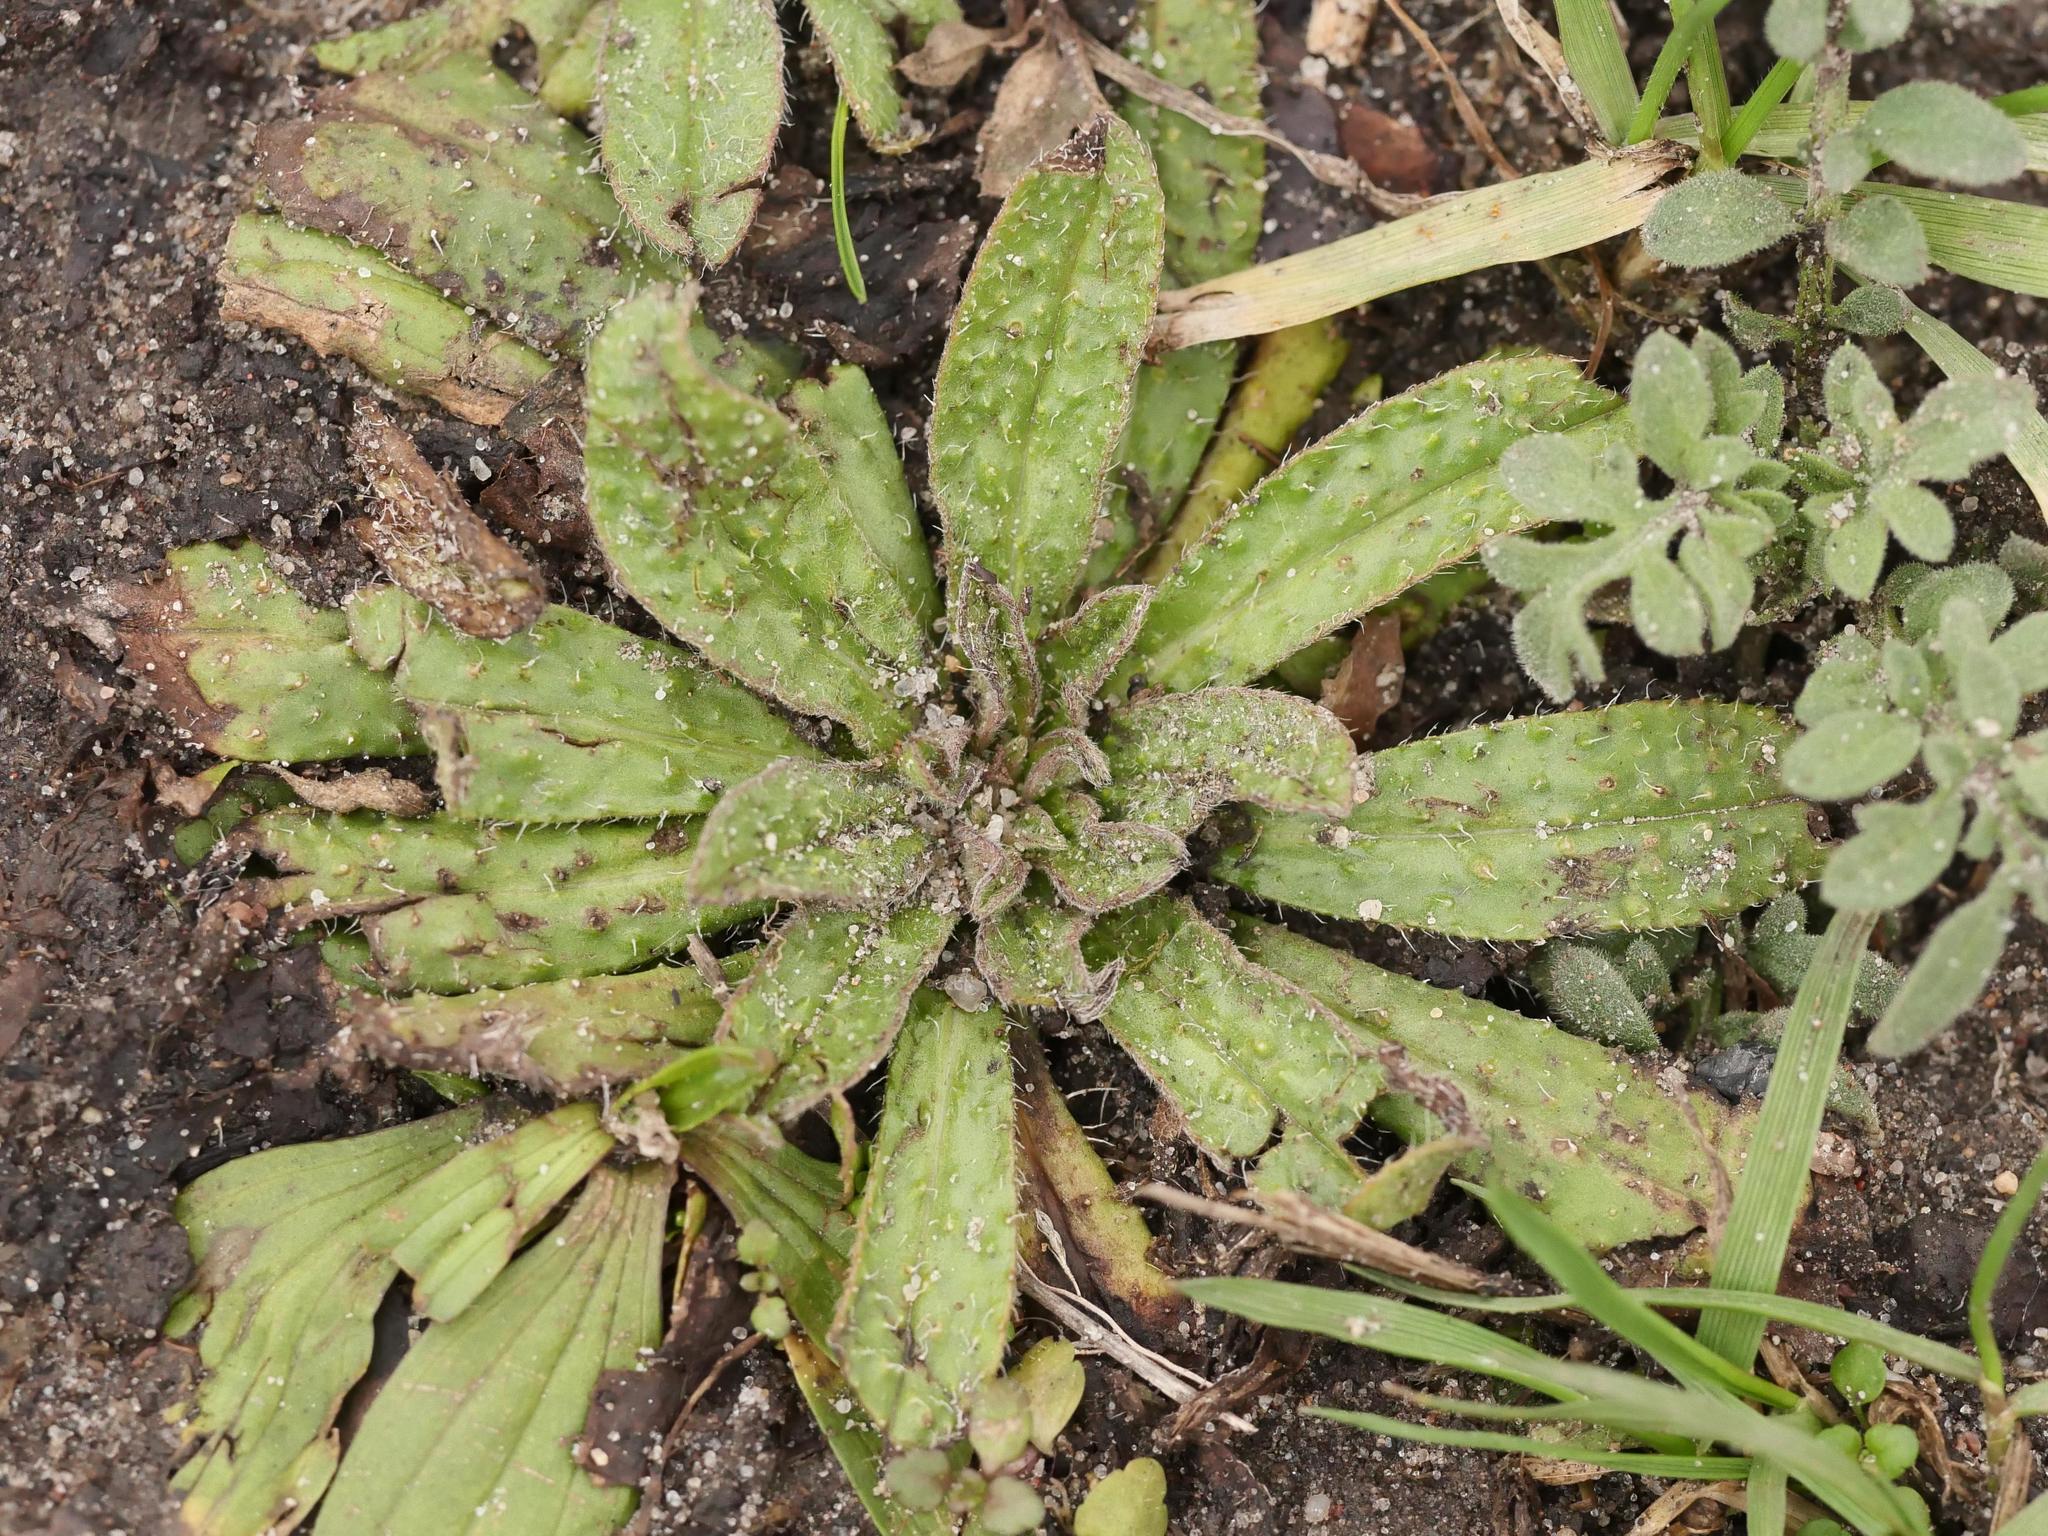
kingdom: Plantae
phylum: Tracheophyta
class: Magnoliopsida
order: Boraginales
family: Boraginaceae
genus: Echium
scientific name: Echium vulgare
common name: Common viper's bugloss
